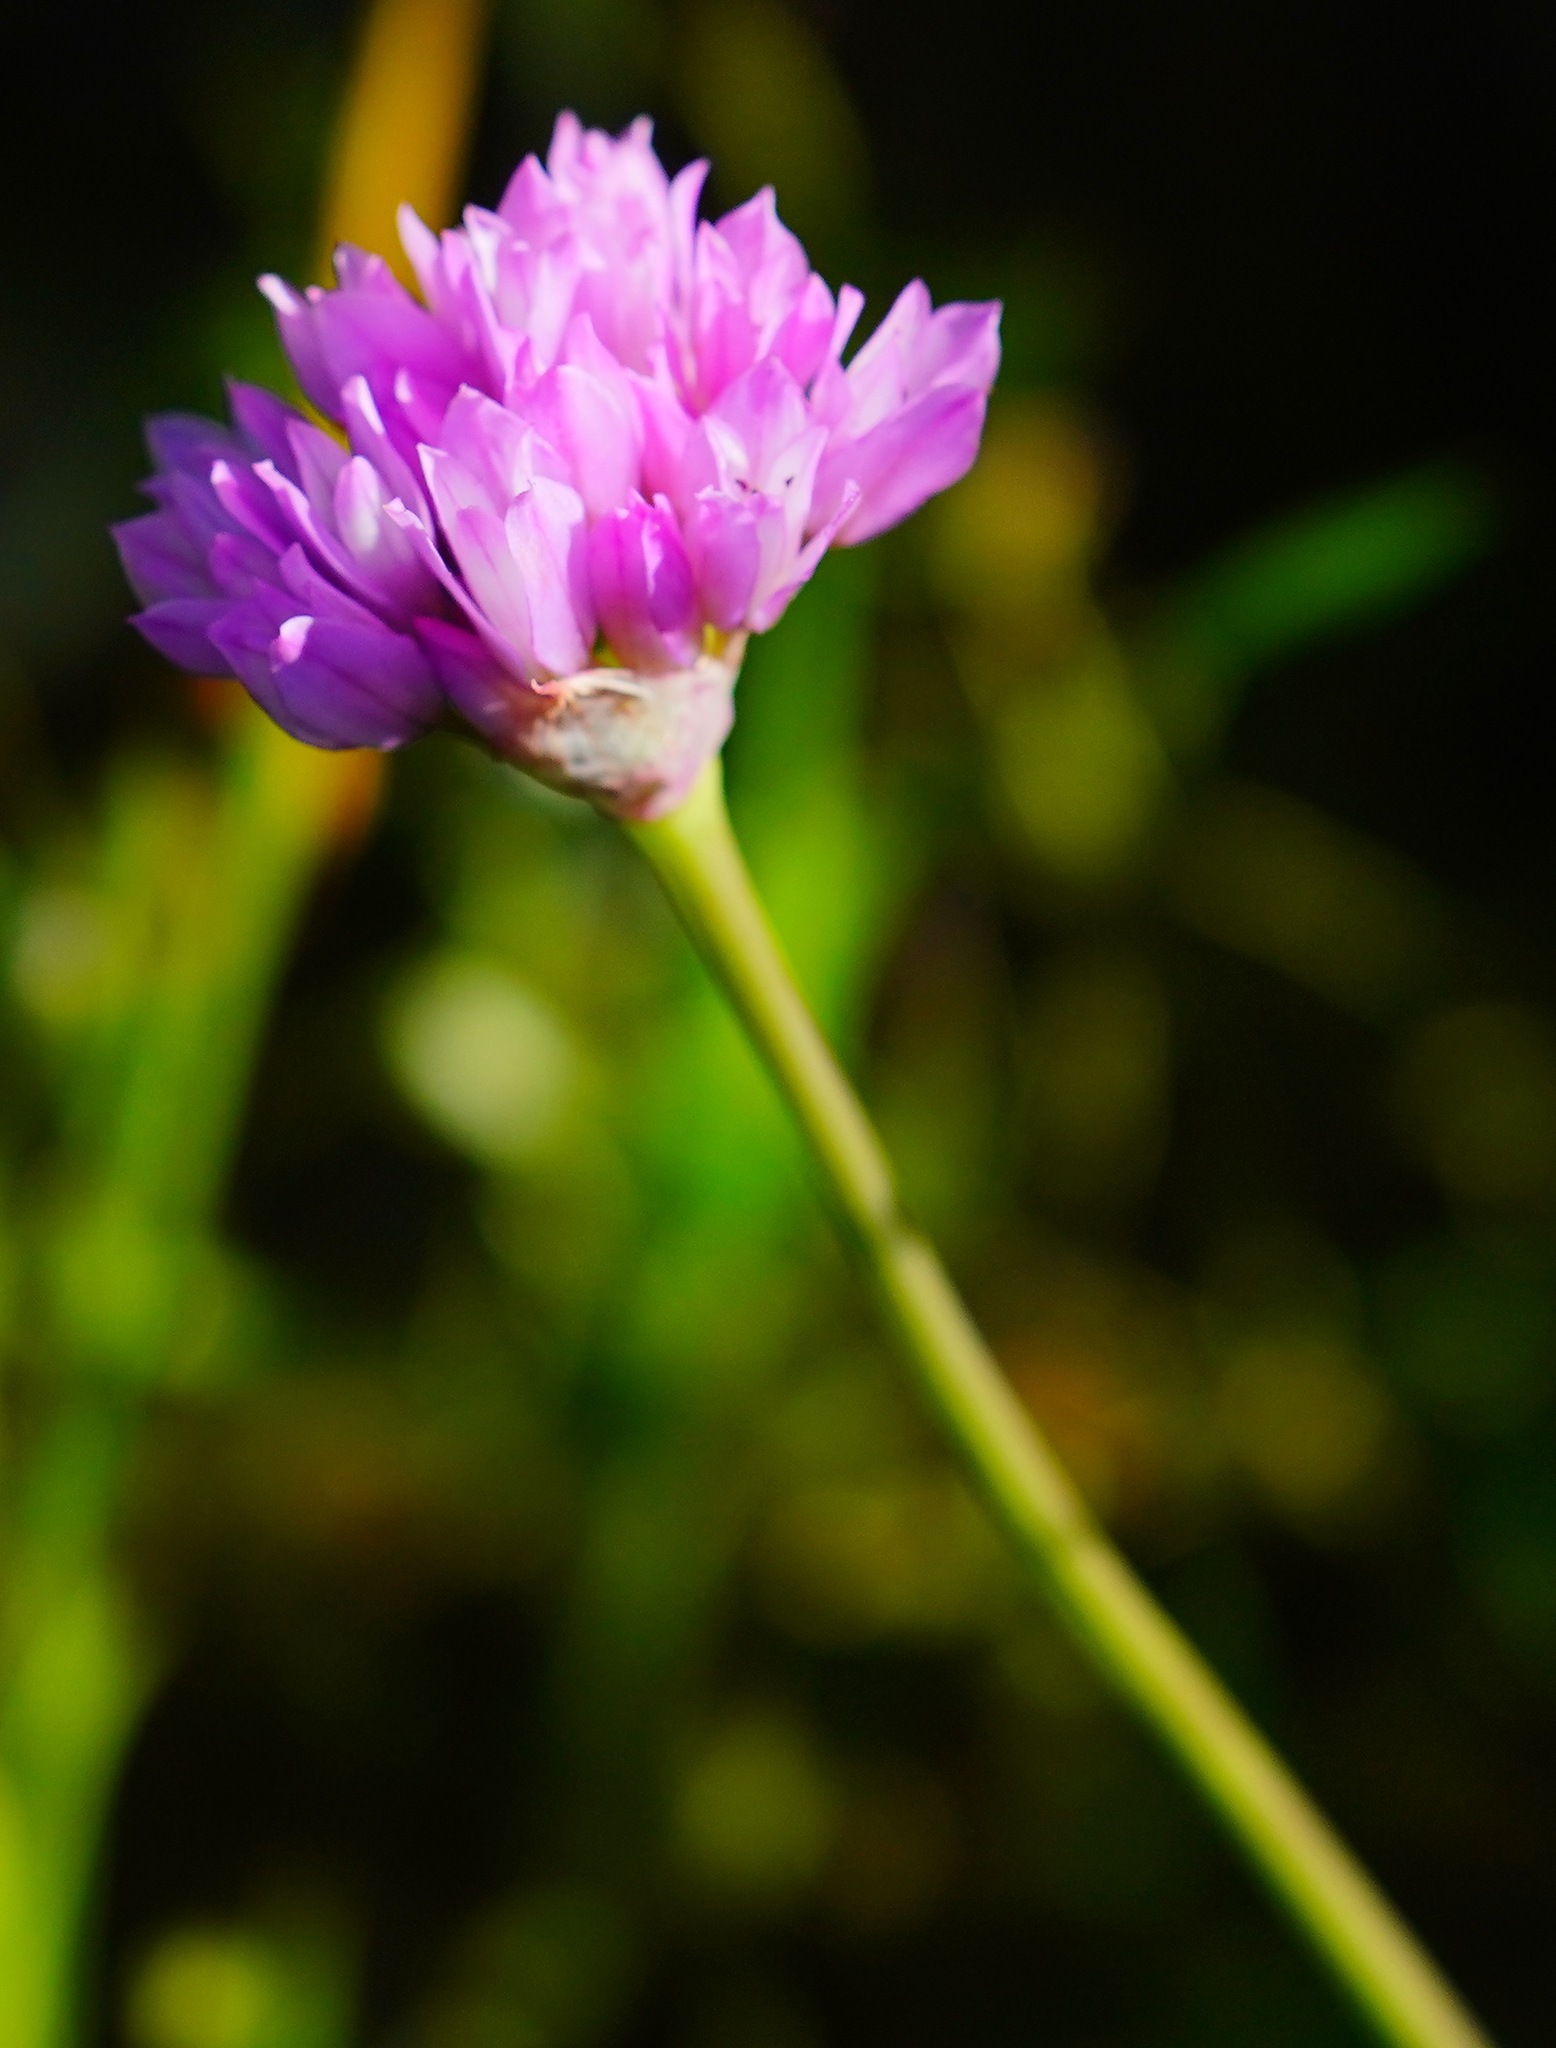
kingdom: Plantae
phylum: Tracheophyta
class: Liliopsida
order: Asparagales
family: Amaryllidaceae
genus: Allium
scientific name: Allium serra
